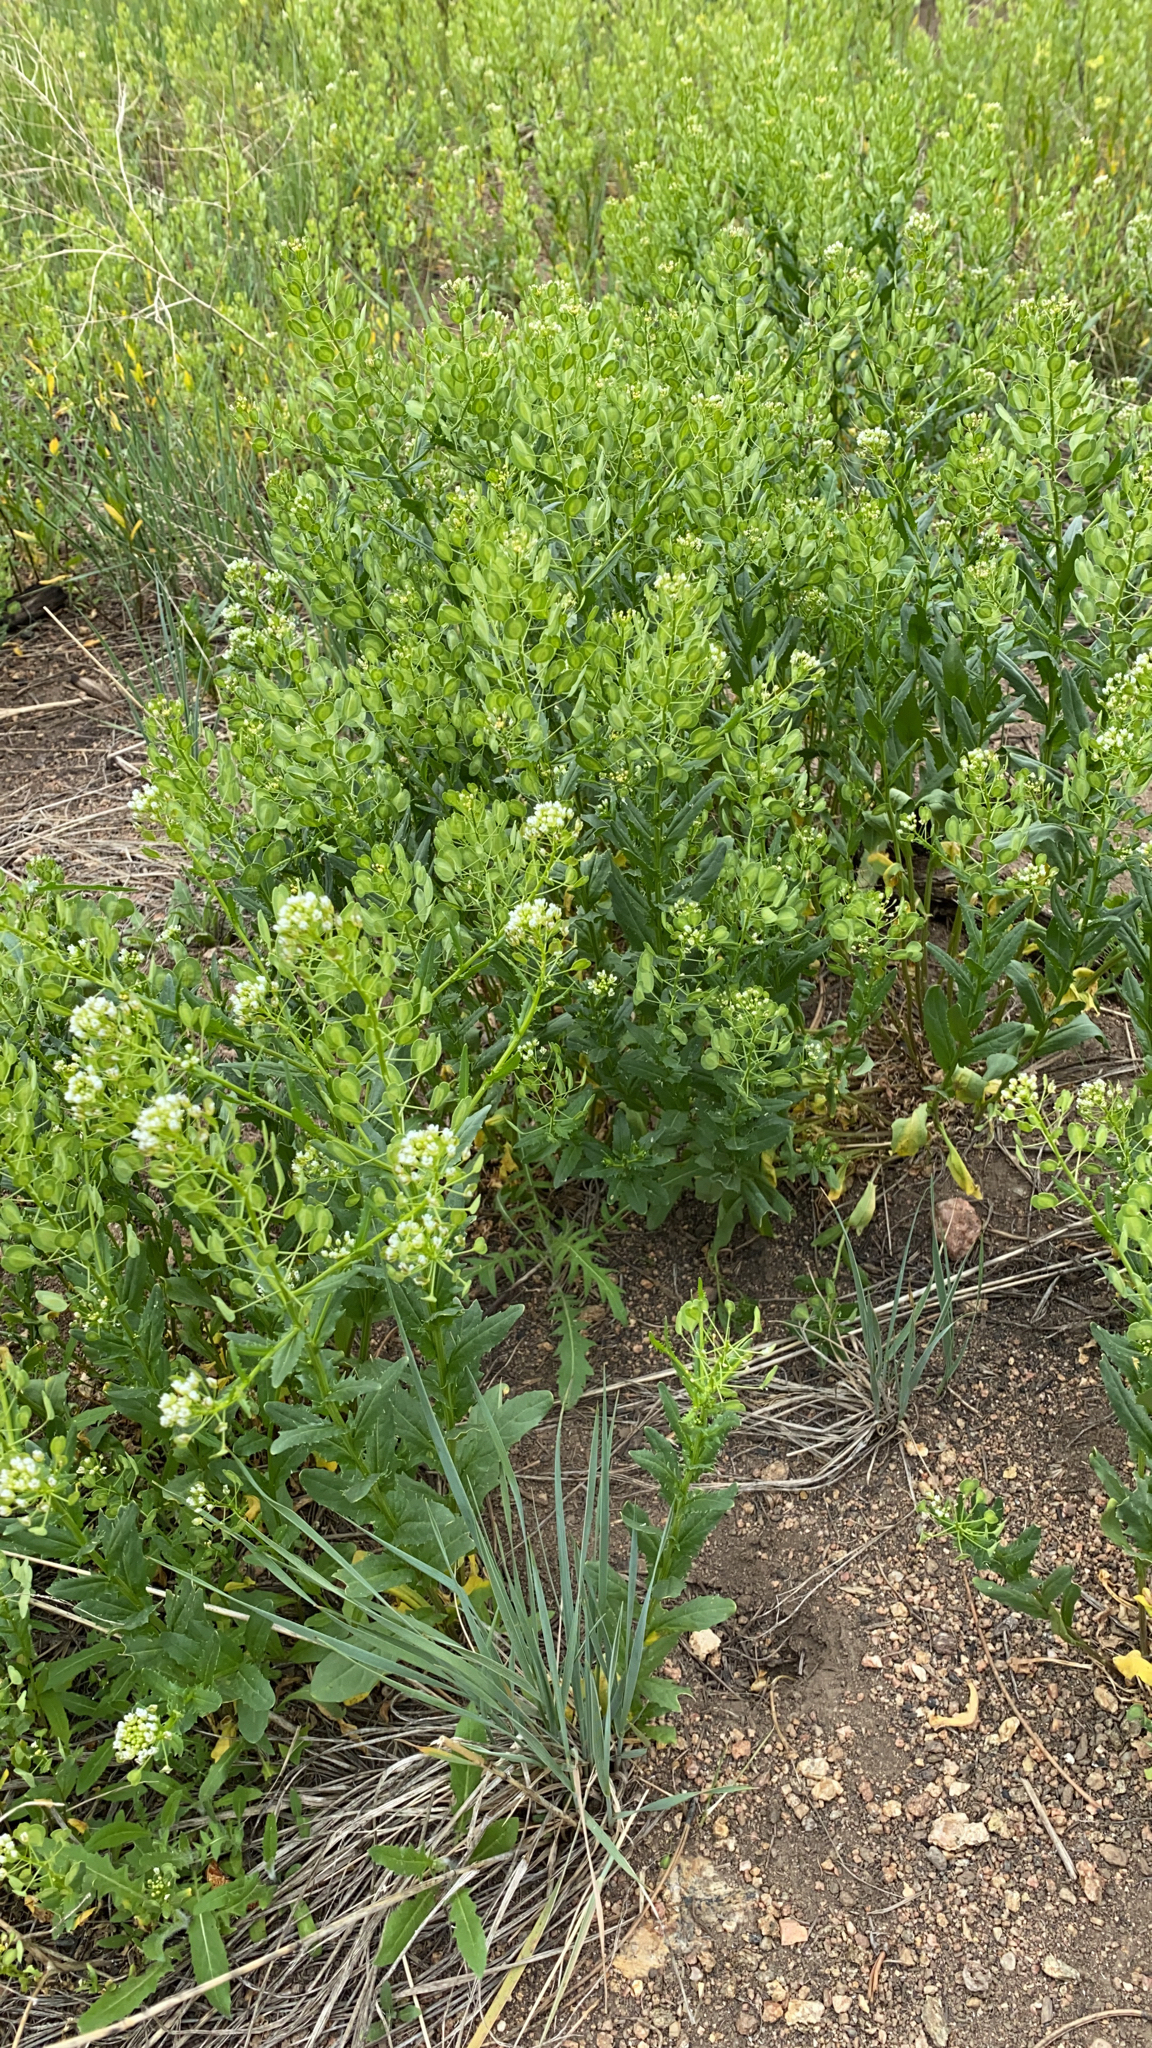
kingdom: Plantae
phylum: Tracheophyta
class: Magnoliopsida
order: Brassicales
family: Brassicaceae
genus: Thlaspi
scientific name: Thlaspi arvense
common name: Field pennycress
